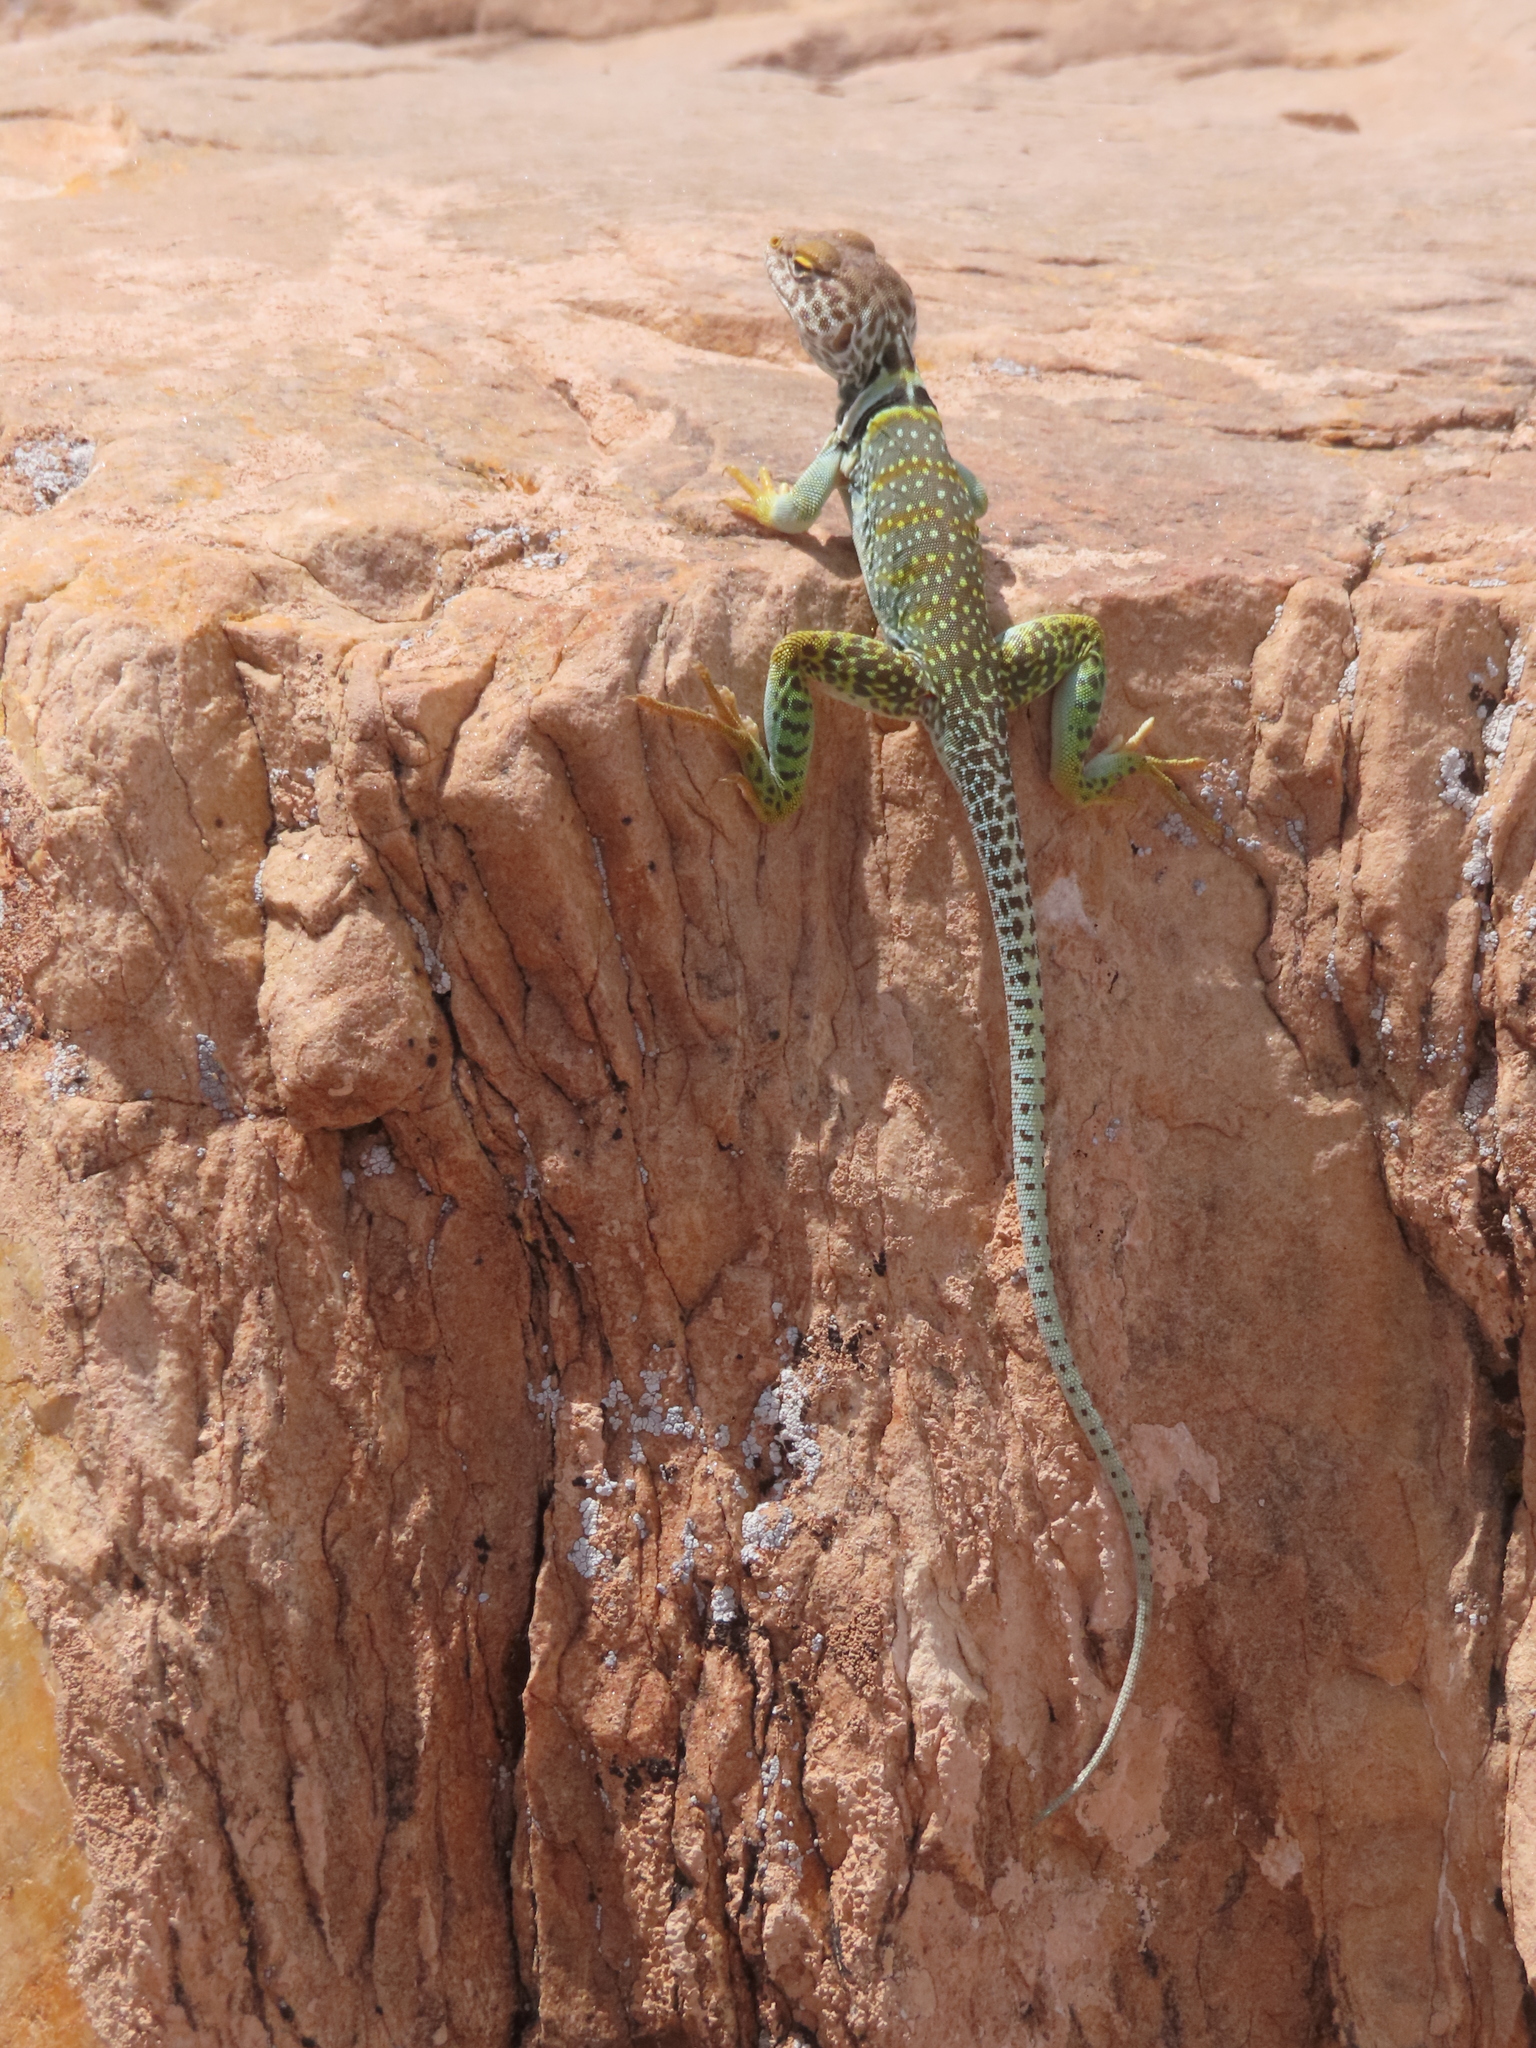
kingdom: Animalia
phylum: Chordata
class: Squamata
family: Crotaphytidae
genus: Crotaphytus
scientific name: Crotaphytus collaris
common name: Collared lizard
